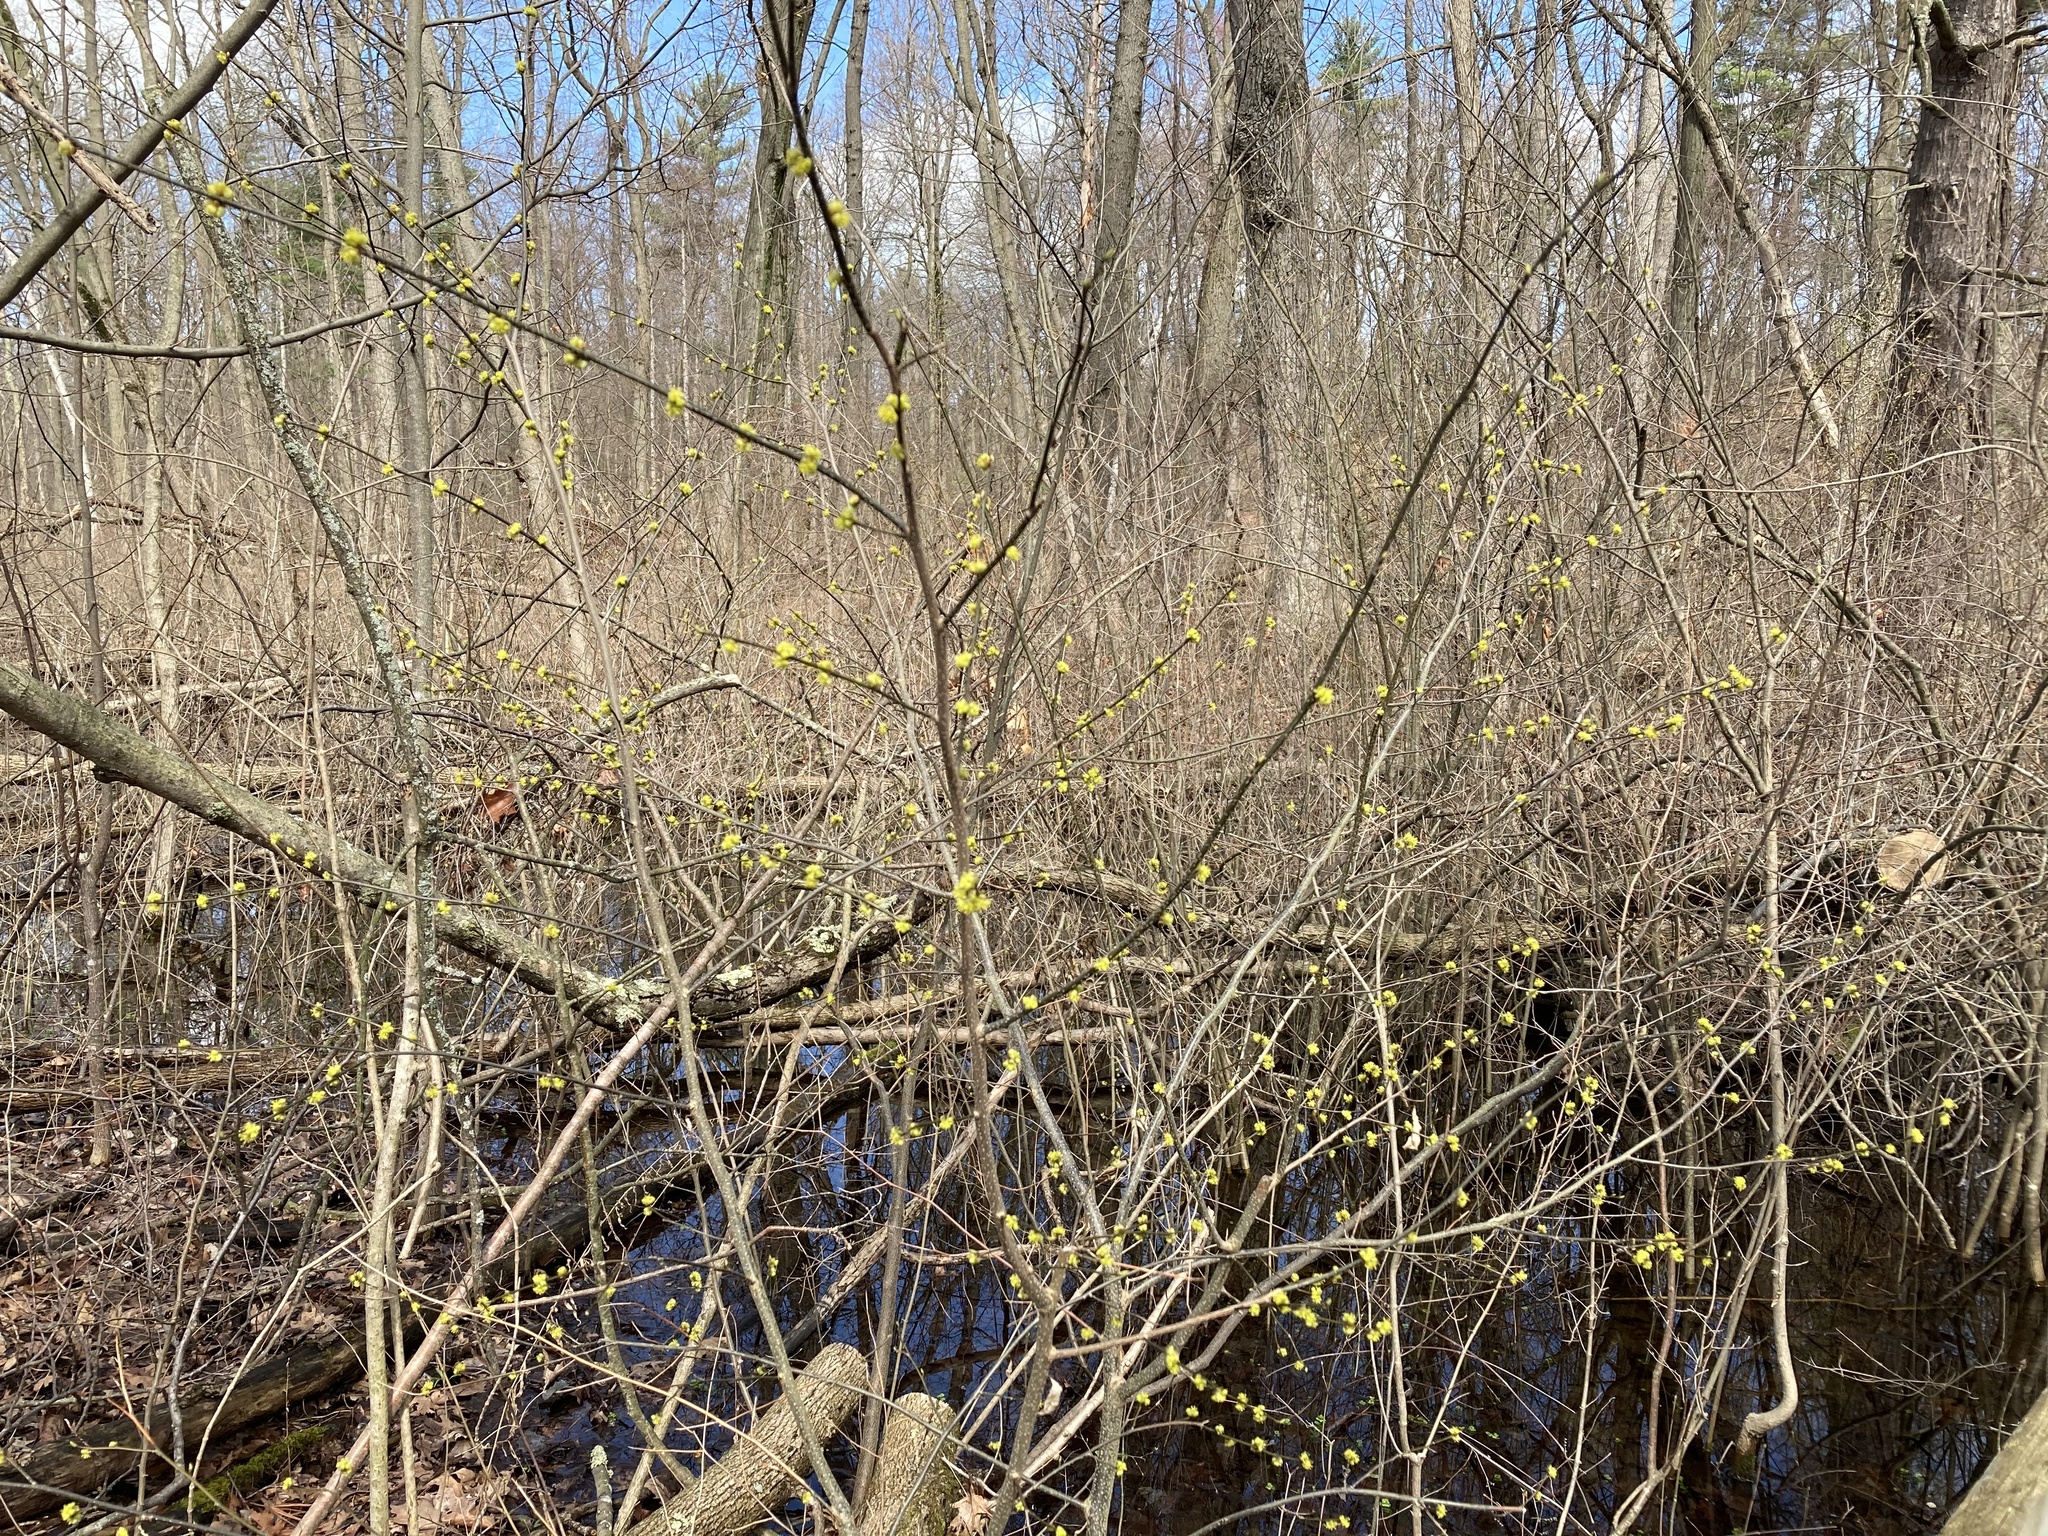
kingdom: Plantae
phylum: Tracheophyta
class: Magnoliopsida
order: Laurales
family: Lauraceae
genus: Lindera
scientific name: Lindera benzoin
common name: Spicebush
